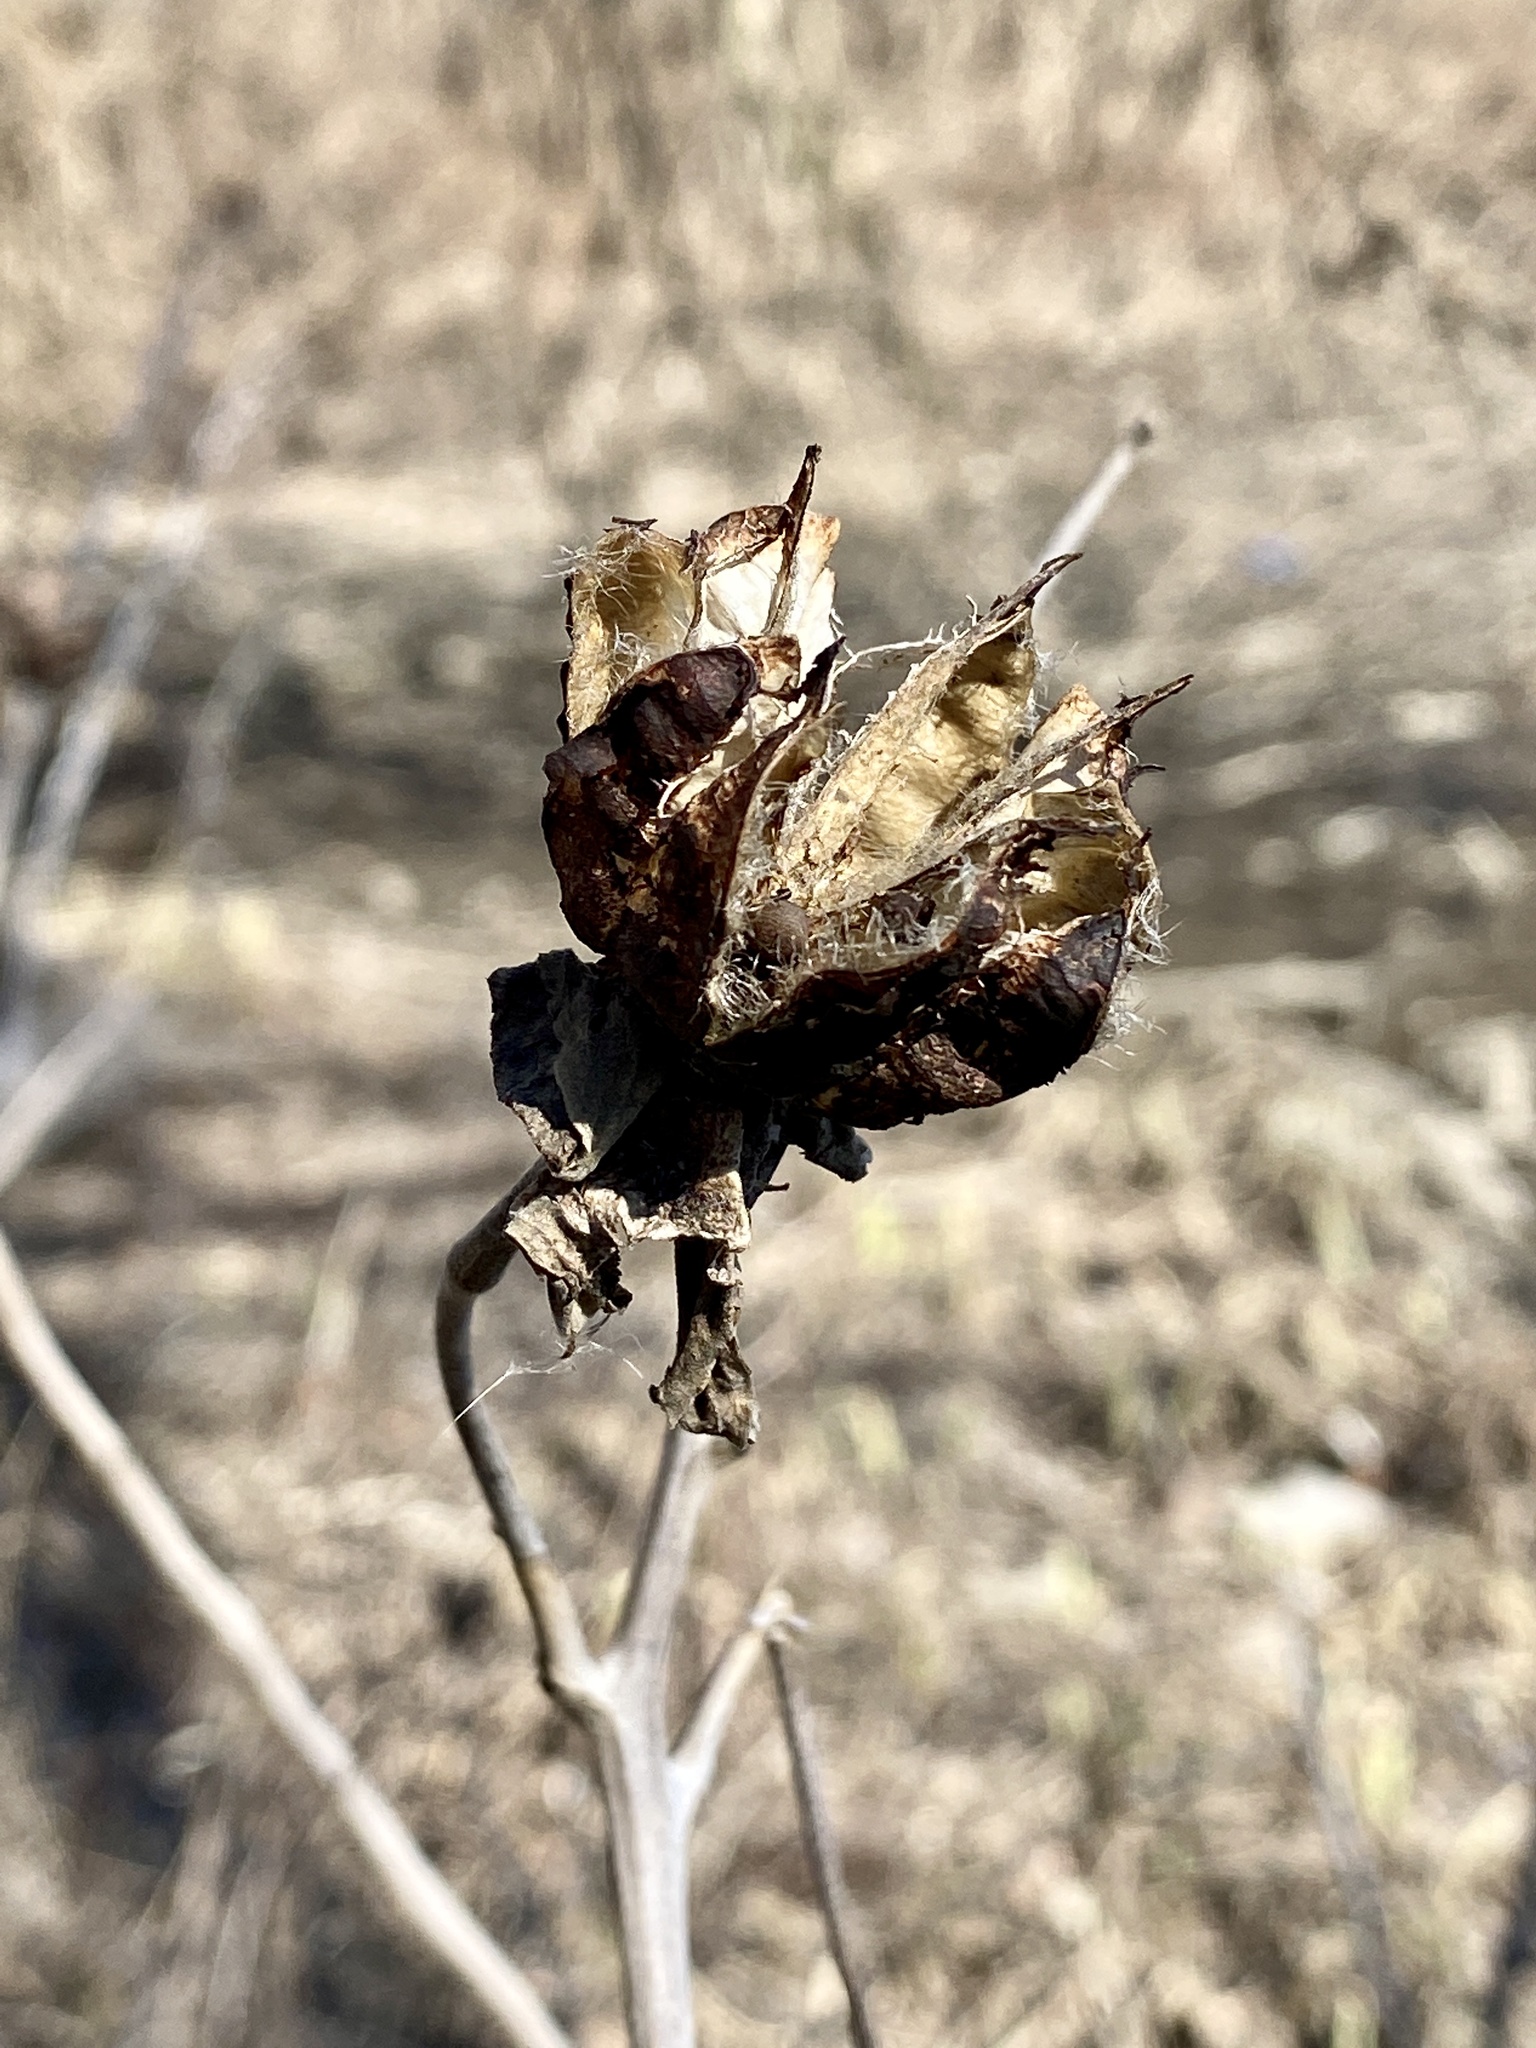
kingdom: Plantae
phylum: Tracheophyta
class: Magnoliopsida
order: Malvales
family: Malvaceae
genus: Hibiscus
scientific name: Hibiscus moscheutos
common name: Common rose-mallow
